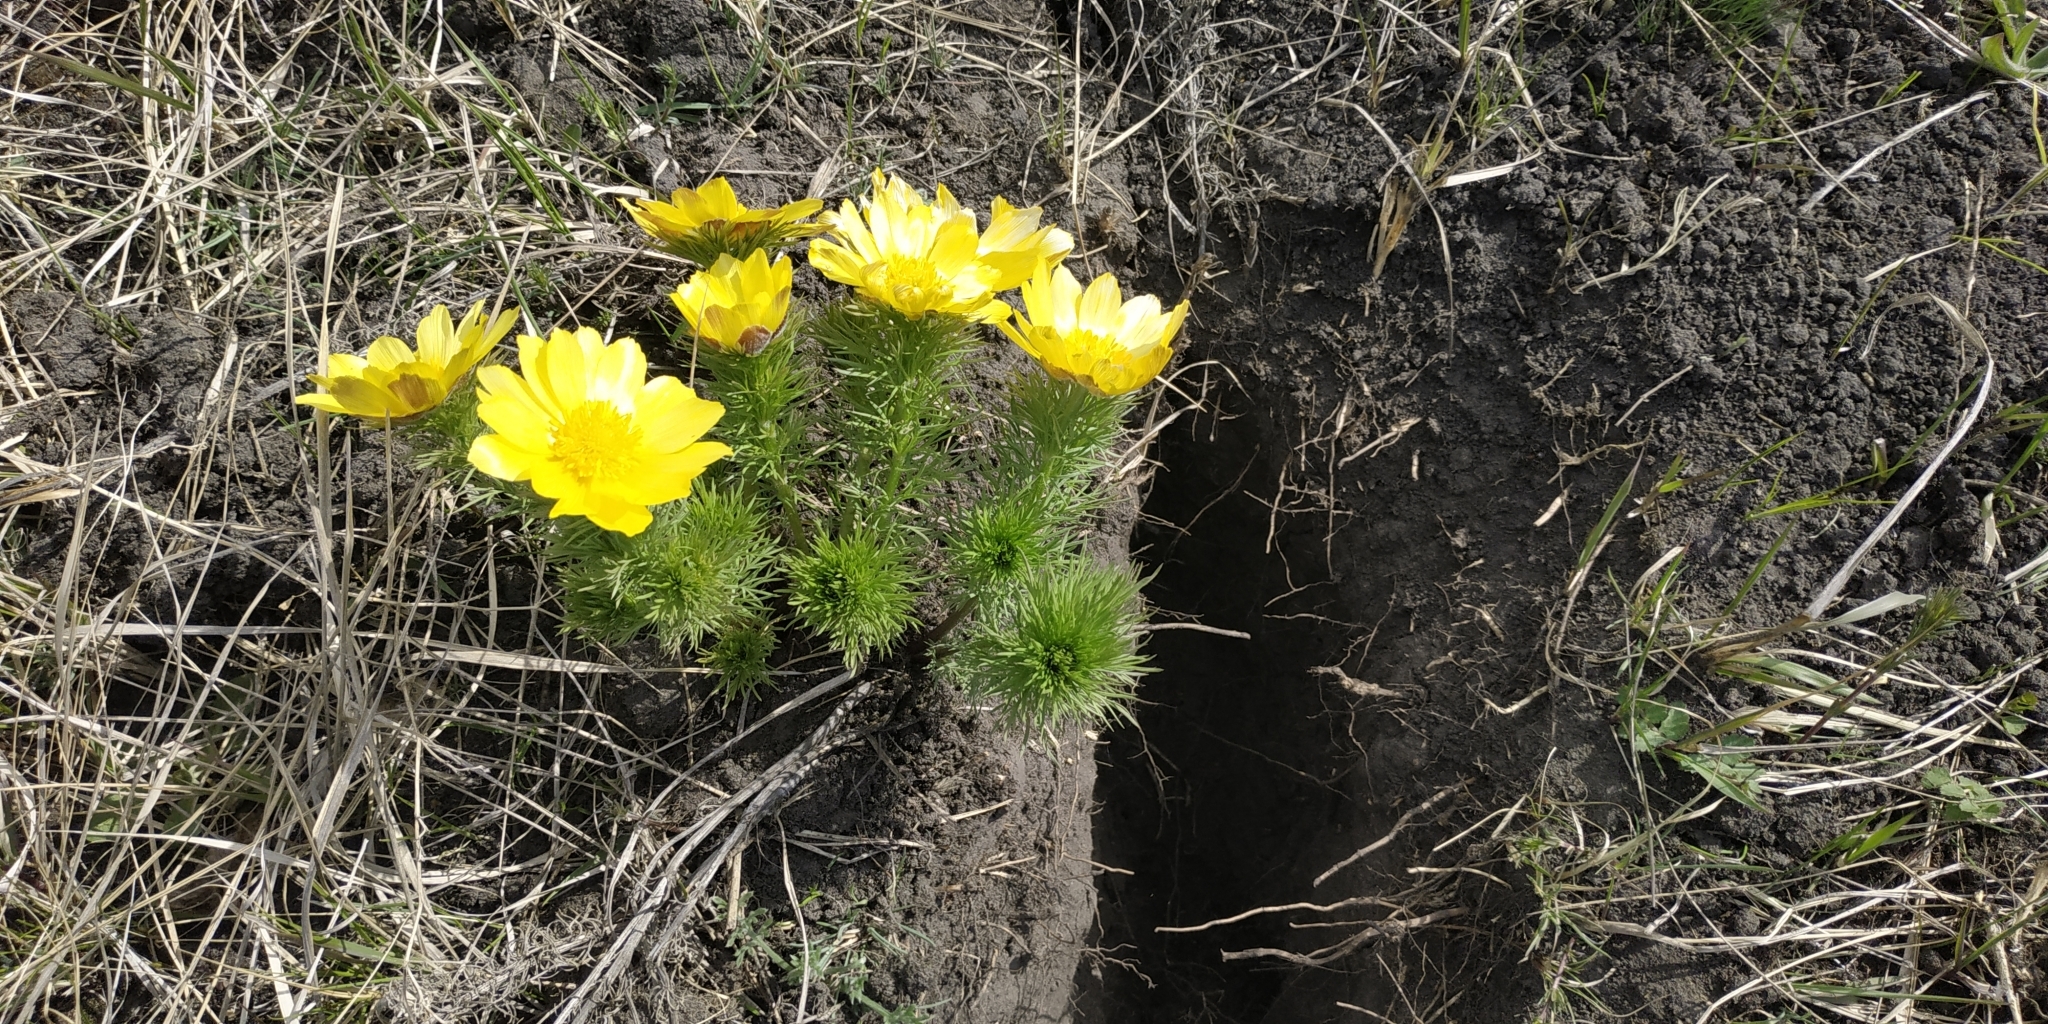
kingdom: Plantae
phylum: Tracheophyta
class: Magnoliopsida
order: Ranunculales
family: Ranunculaceae
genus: Adonis
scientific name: Adonis vernalis
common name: Yellow pheasants-eye
